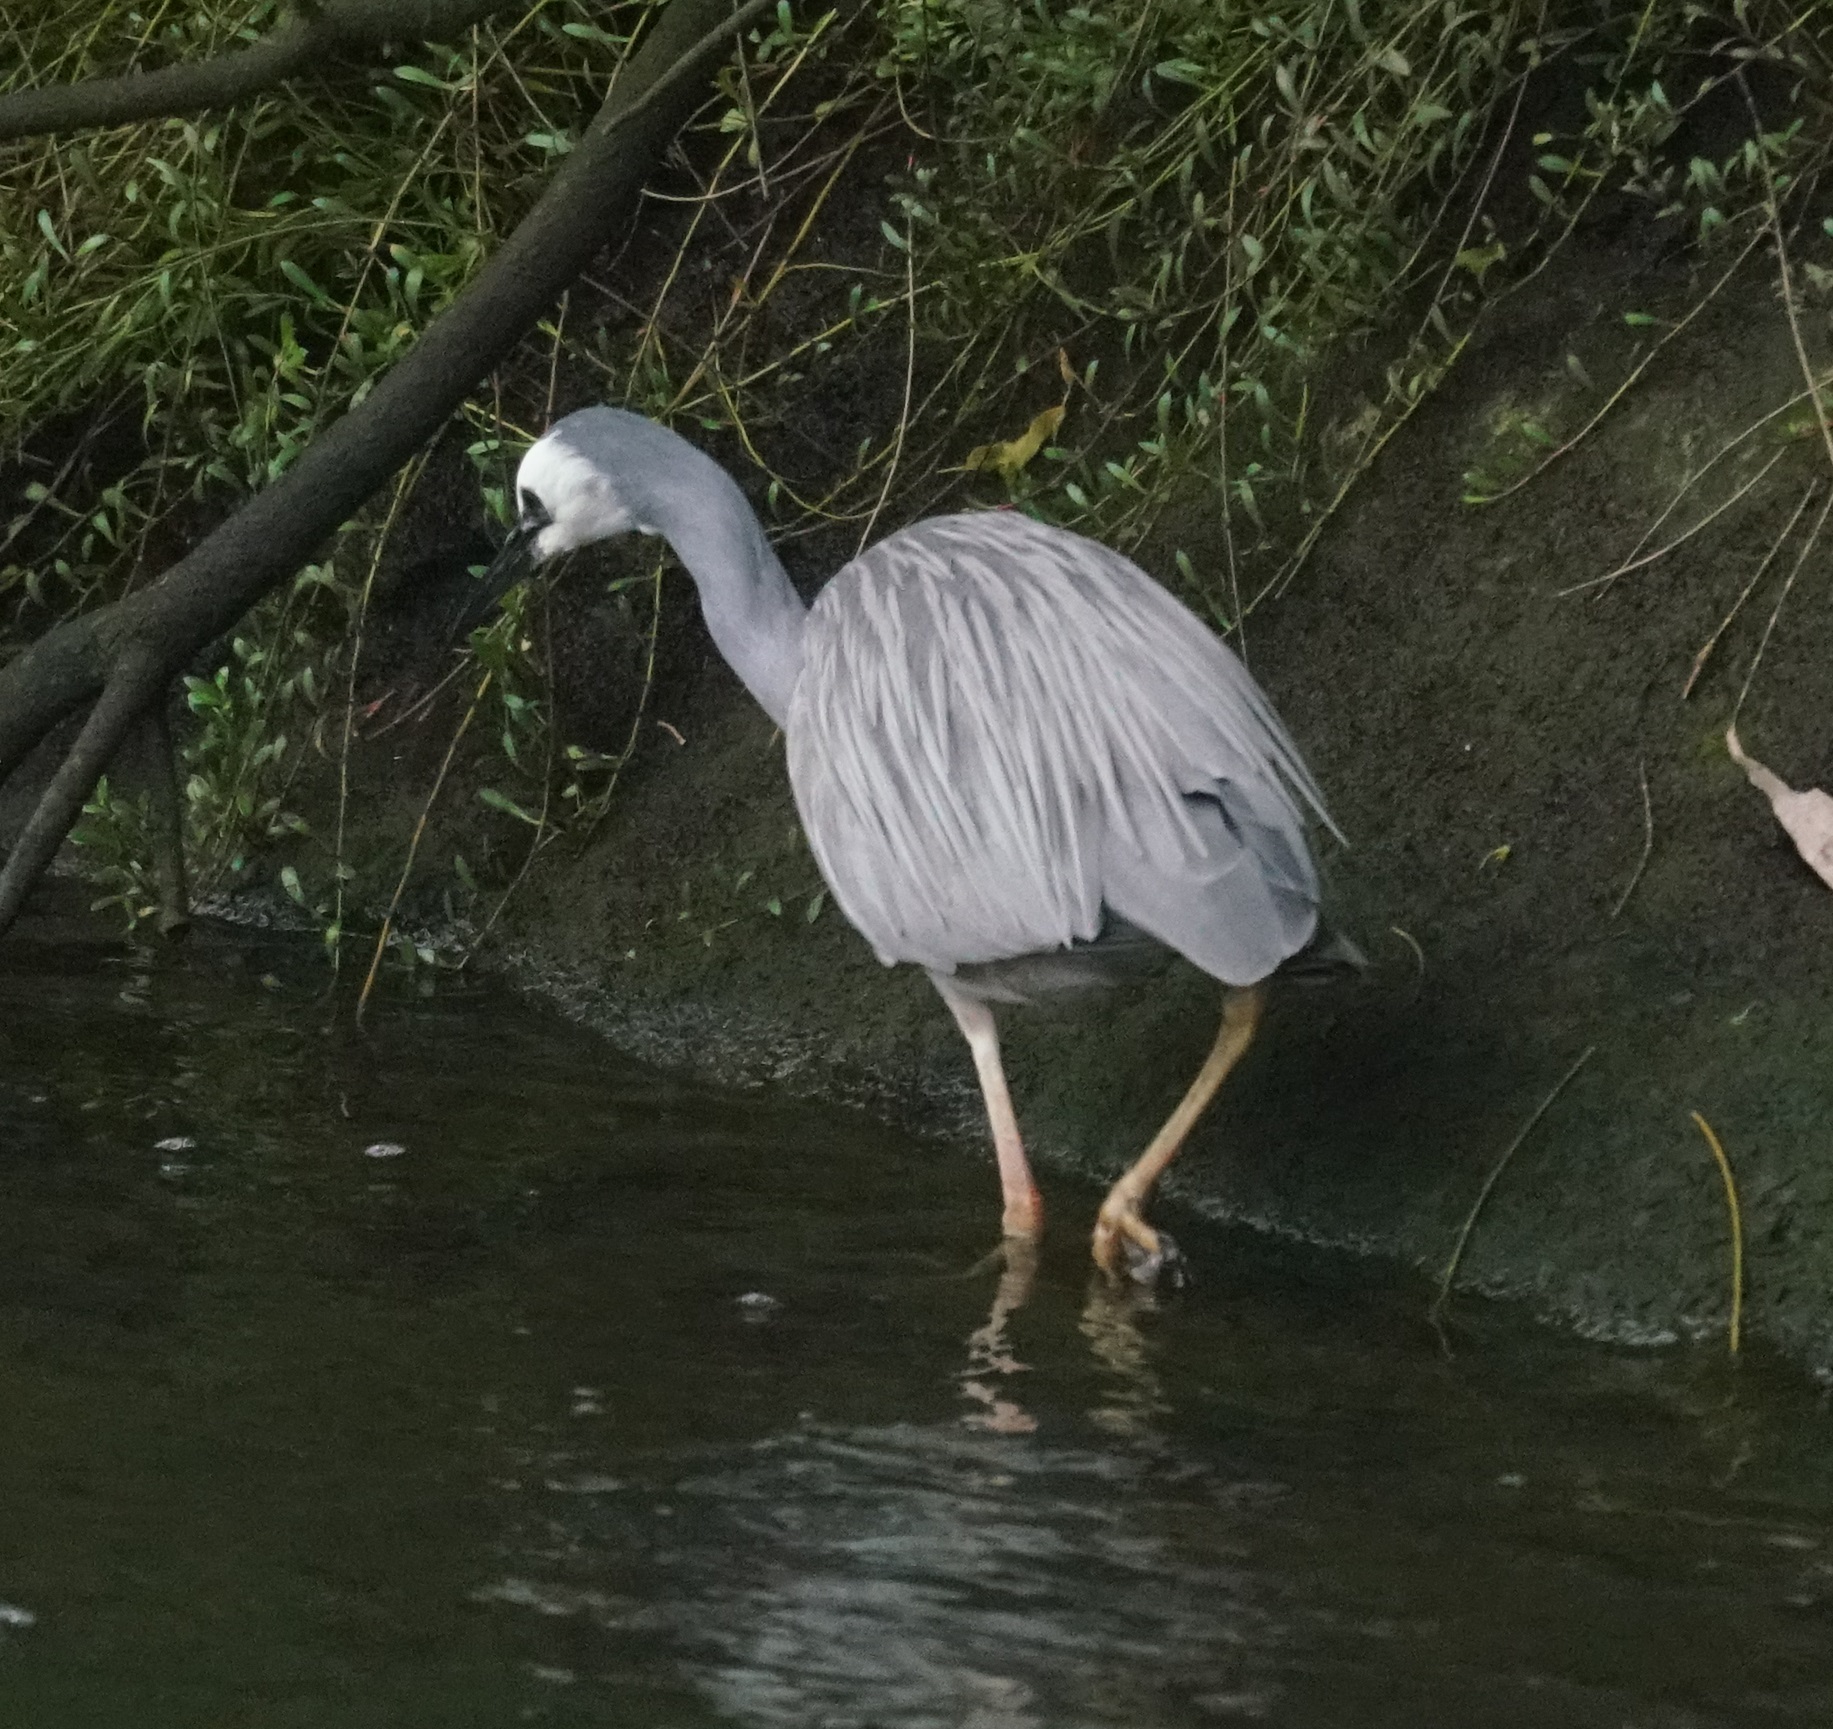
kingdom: Animalia
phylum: Chordata
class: Aves
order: Pelecaniformes
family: Ardeidae
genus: Egretta
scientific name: Egretta novaehollandiae
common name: White-faced heron
